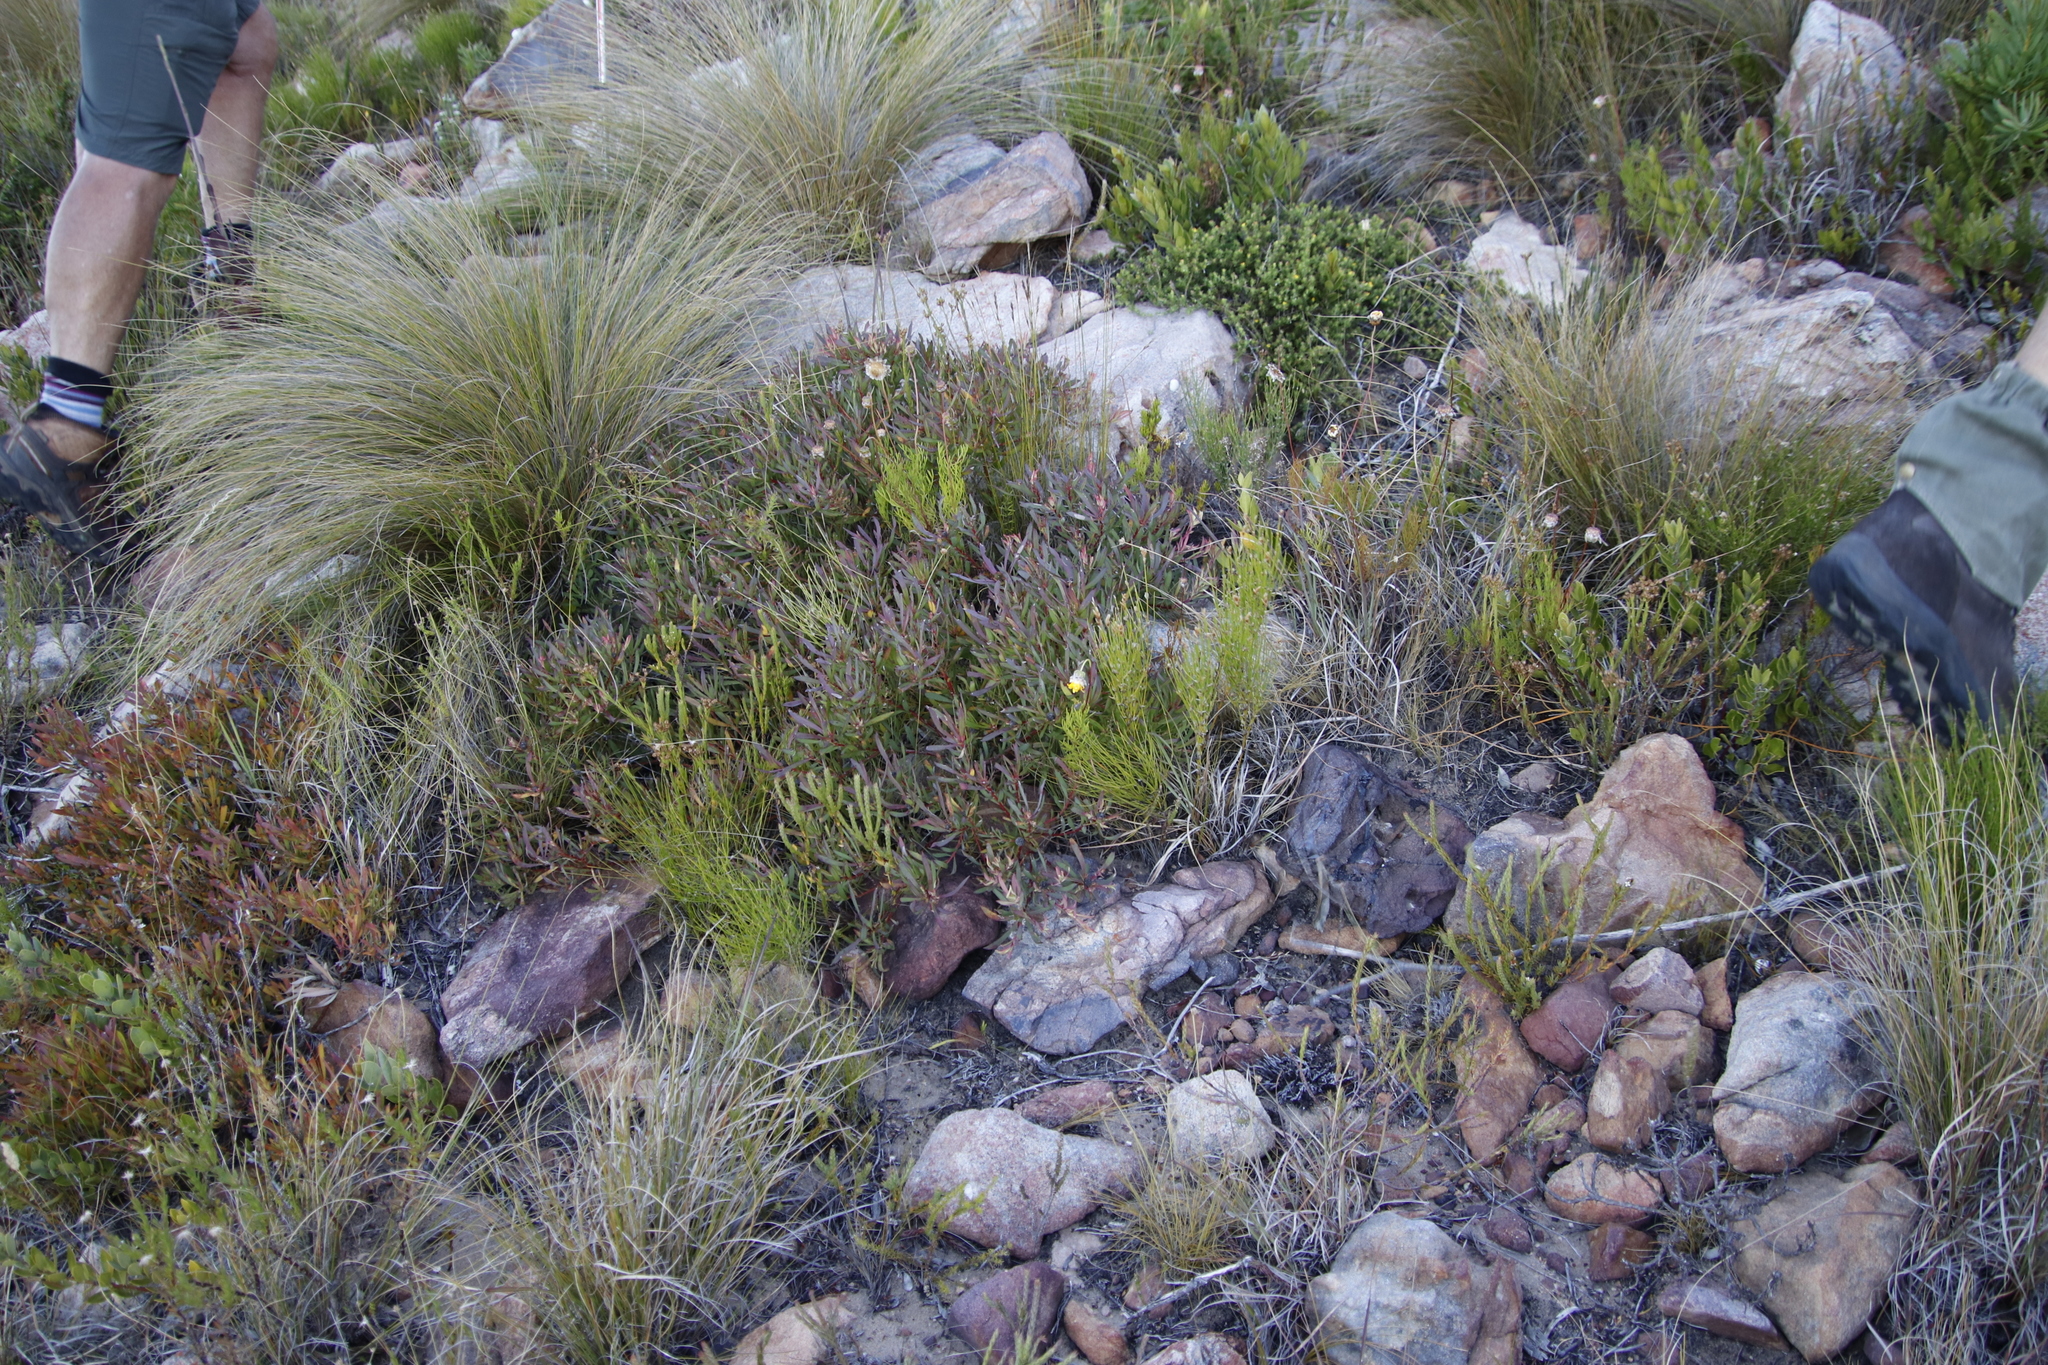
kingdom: Plantae
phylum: Tracheophyta
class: Magnoliopsida
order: Proteales
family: Proteaceae
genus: Leucadendron
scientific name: Leucadendron salignum
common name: Common sunshine conebush
